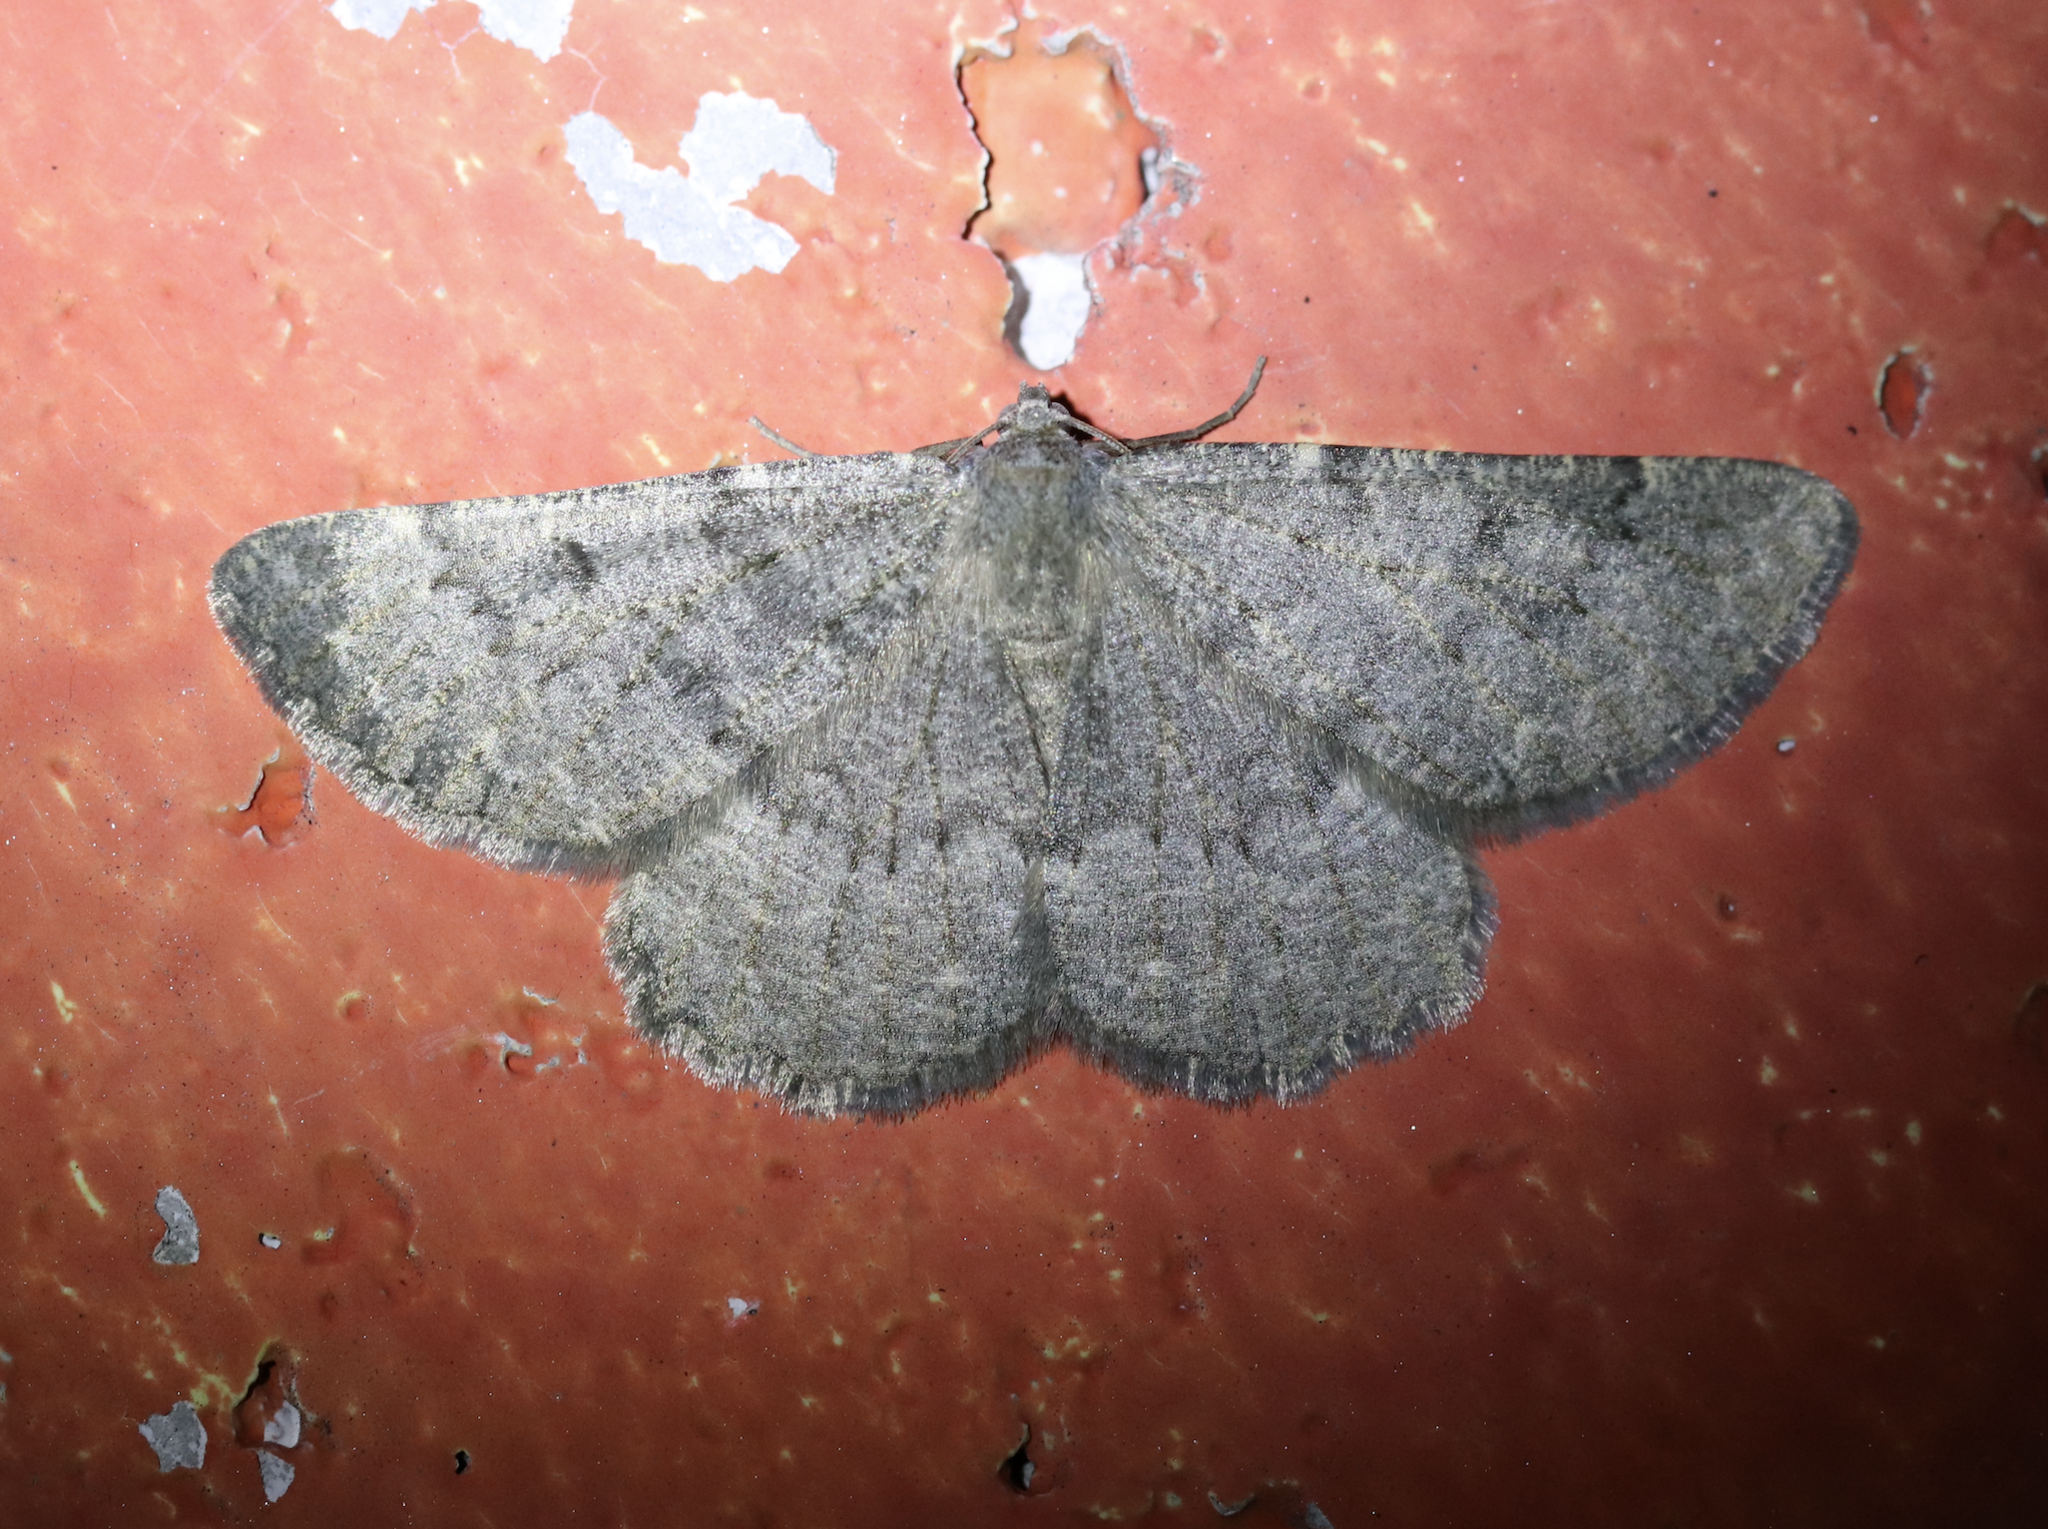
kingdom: Animalia
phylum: Arthropoda
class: Insecta
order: Lepidoptera
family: Geometridae
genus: Gnophos
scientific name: Gnophos obfuscata
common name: Scottish annulet
